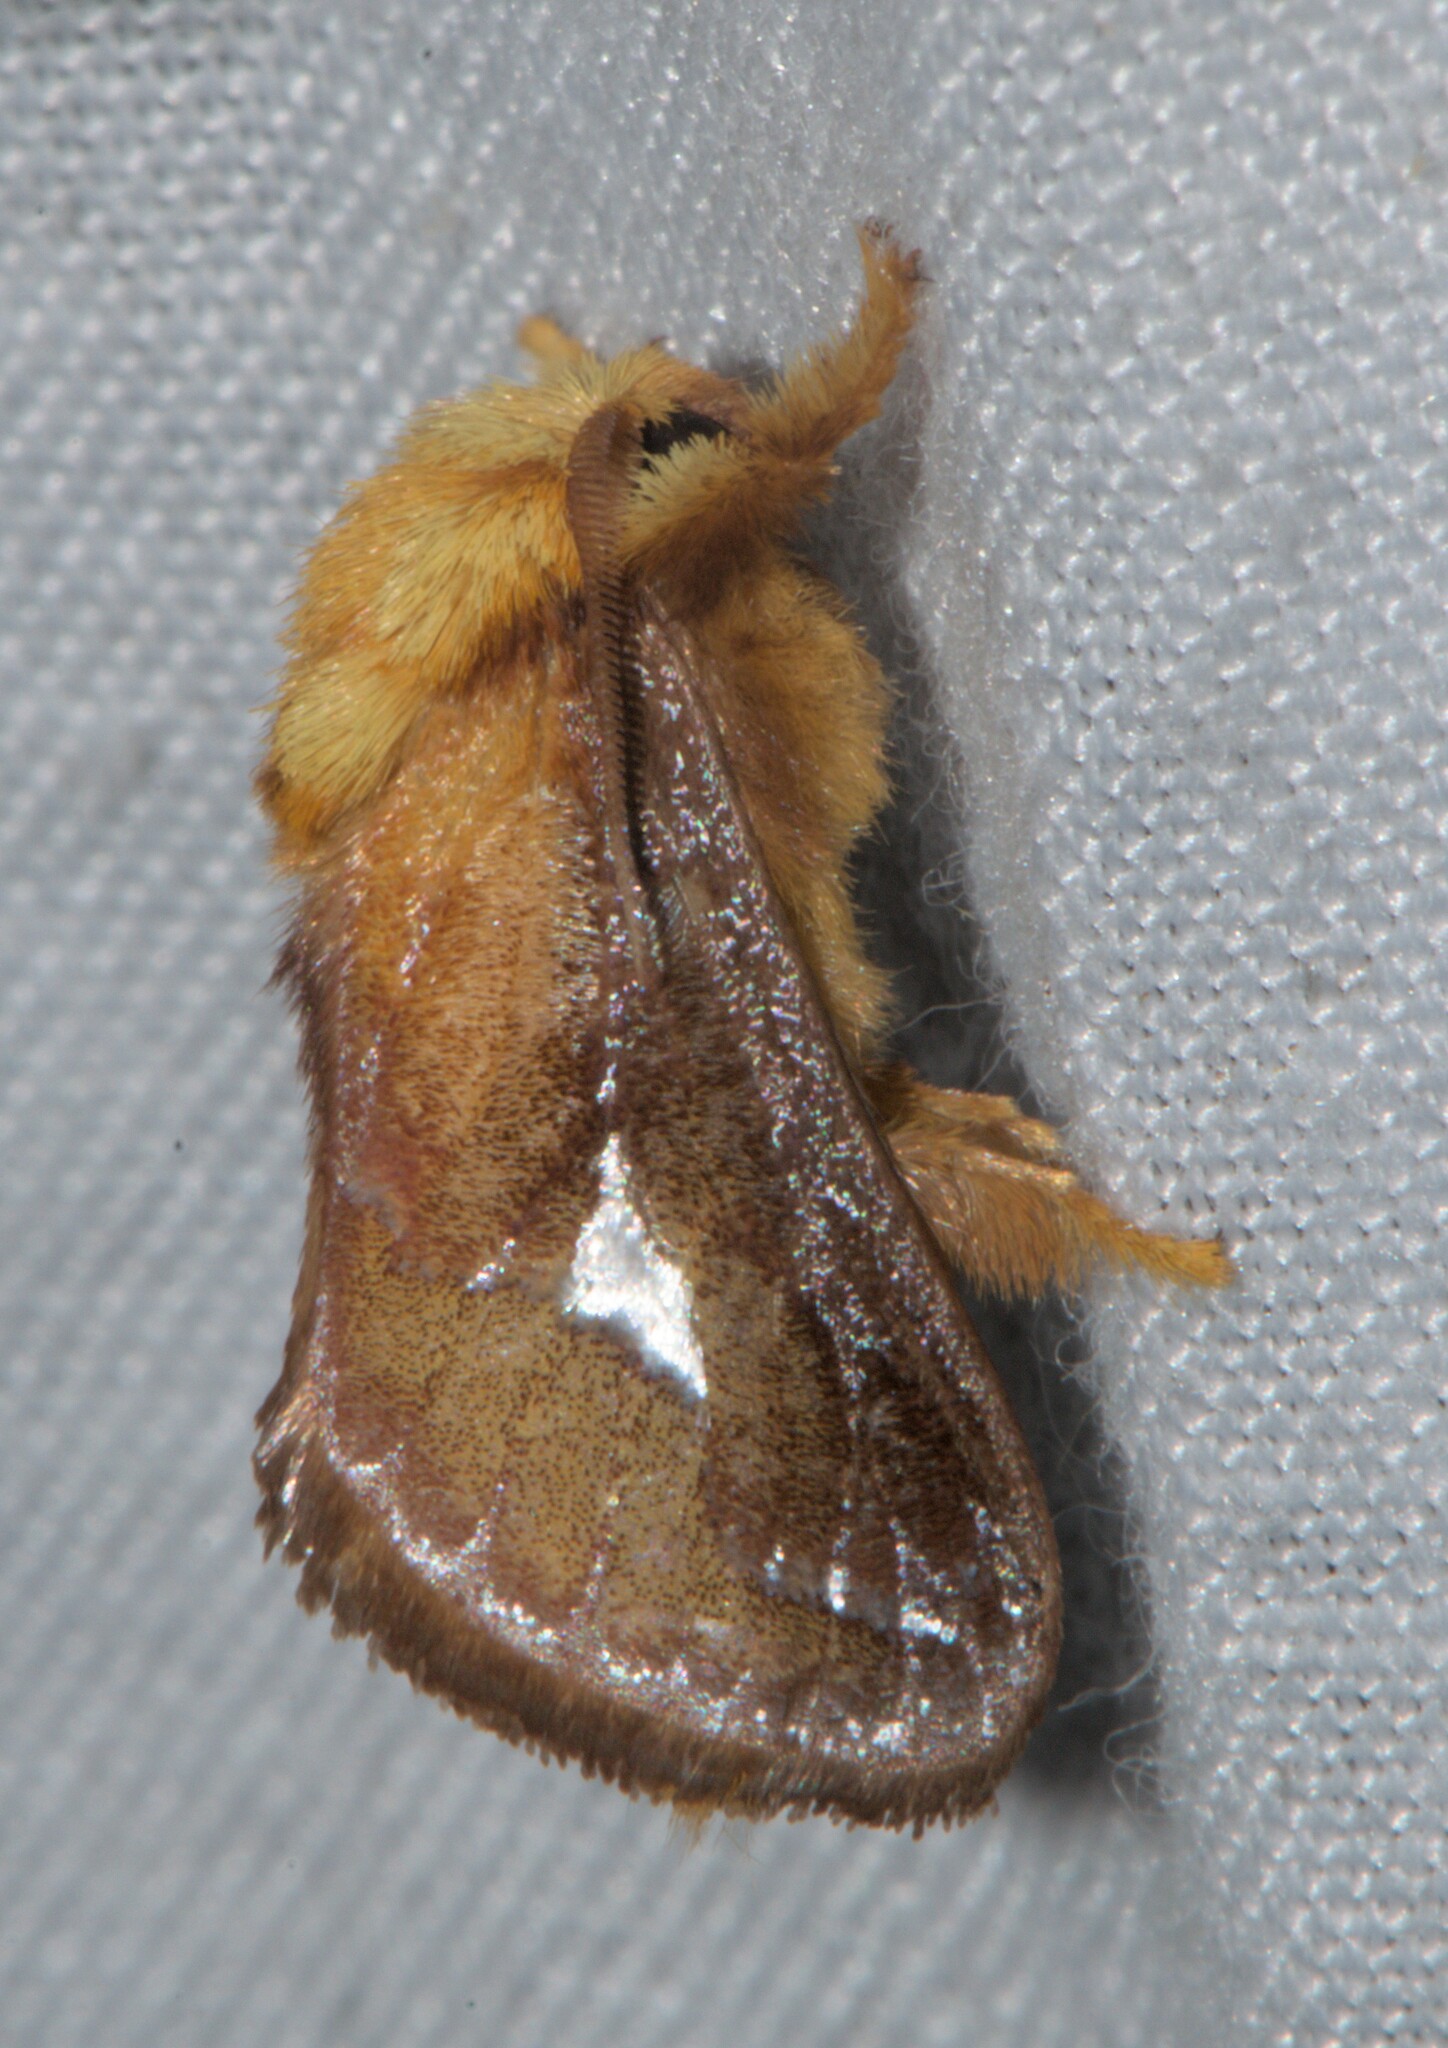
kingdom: Animalia
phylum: Arthropoda
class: Insecta
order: Lepidoptera
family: Limacodidae
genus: Miresa
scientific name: Miresa bracteata
